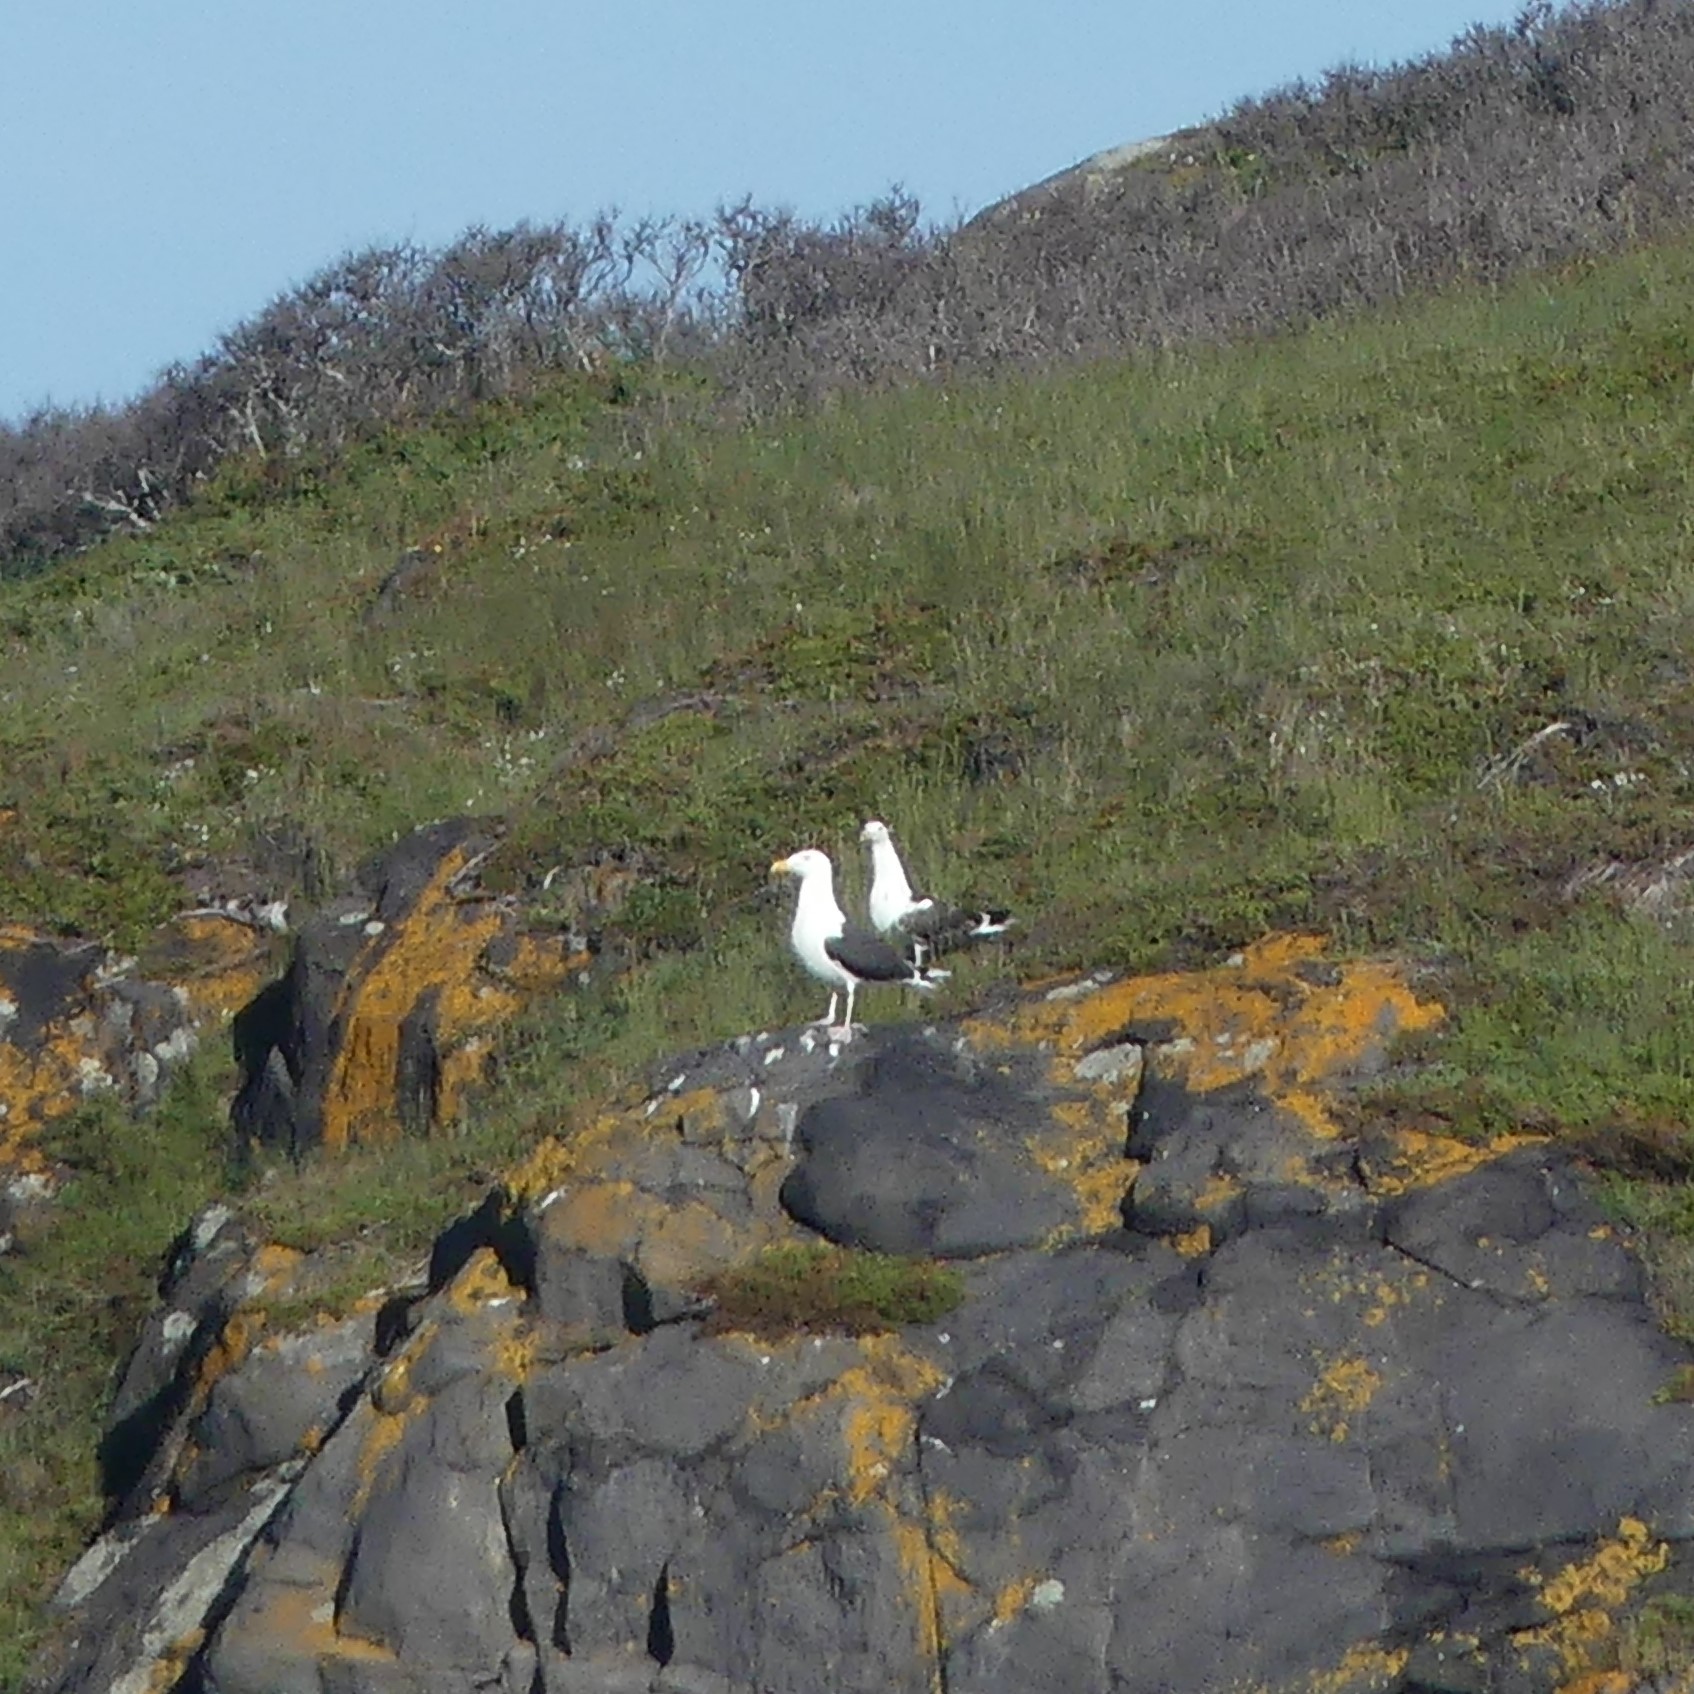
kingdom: Animalia
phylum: Chordata
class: Aves
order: Charadriiformes
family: Laridae
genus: Larus
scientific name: Larus marinus
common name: Great black-backed gull
